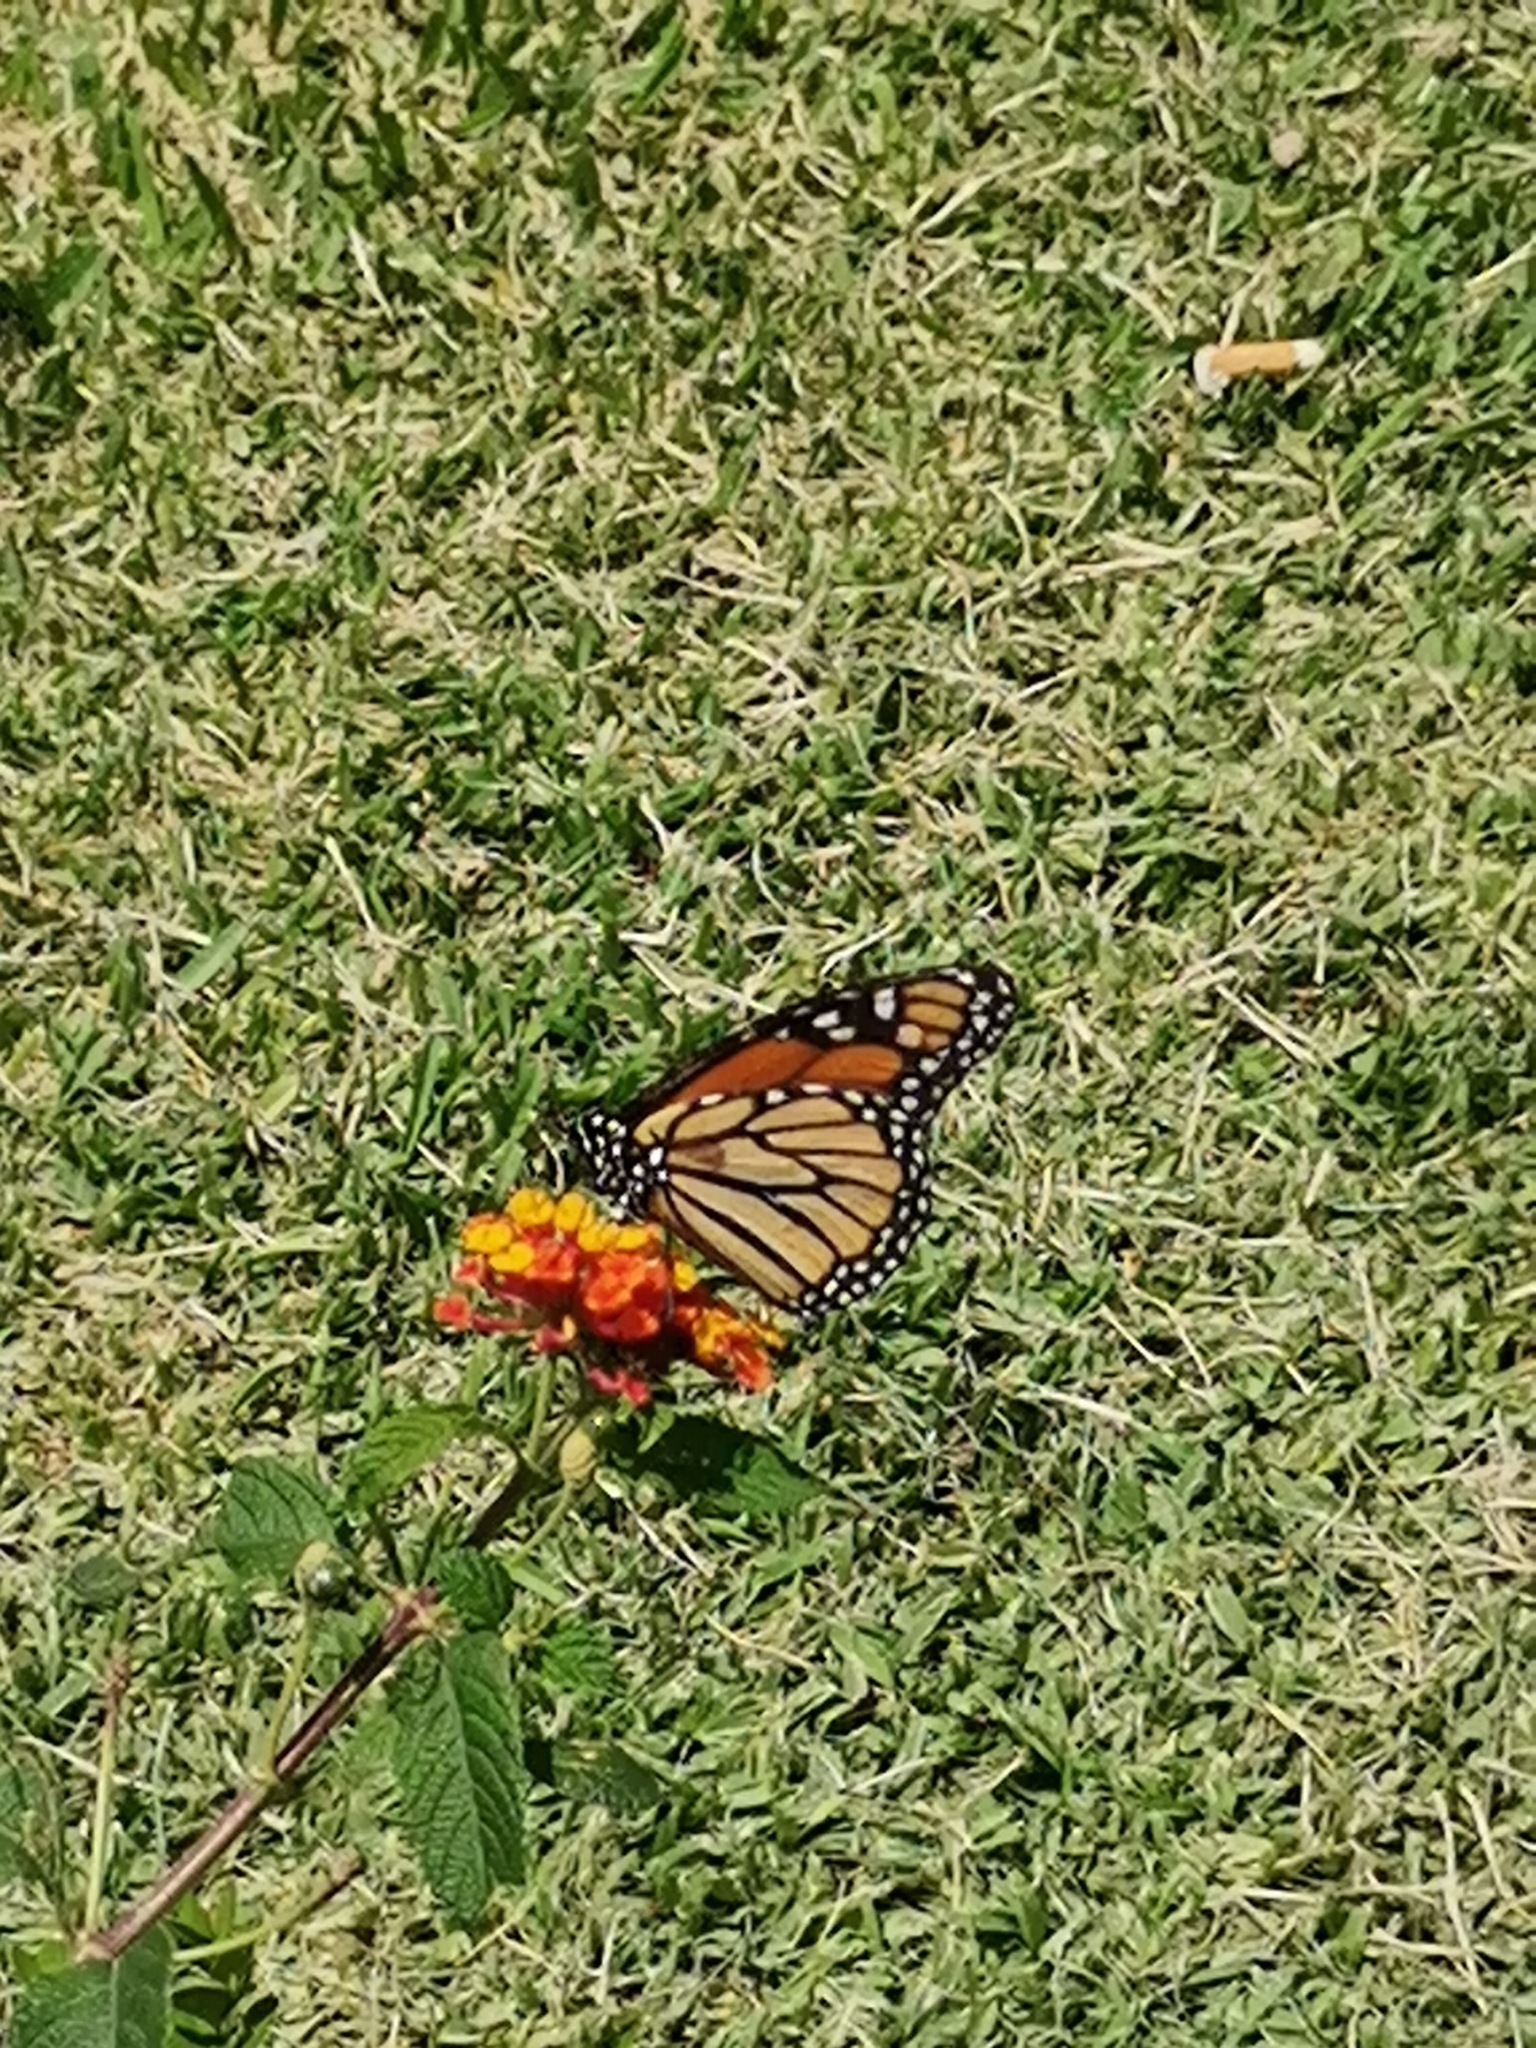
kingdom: Animalia
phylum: Arthropoda
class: Insecta
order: Lepidoptera
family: Nymphalidae
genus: Danaus
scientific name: Danaus plexippus
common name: Monarch
